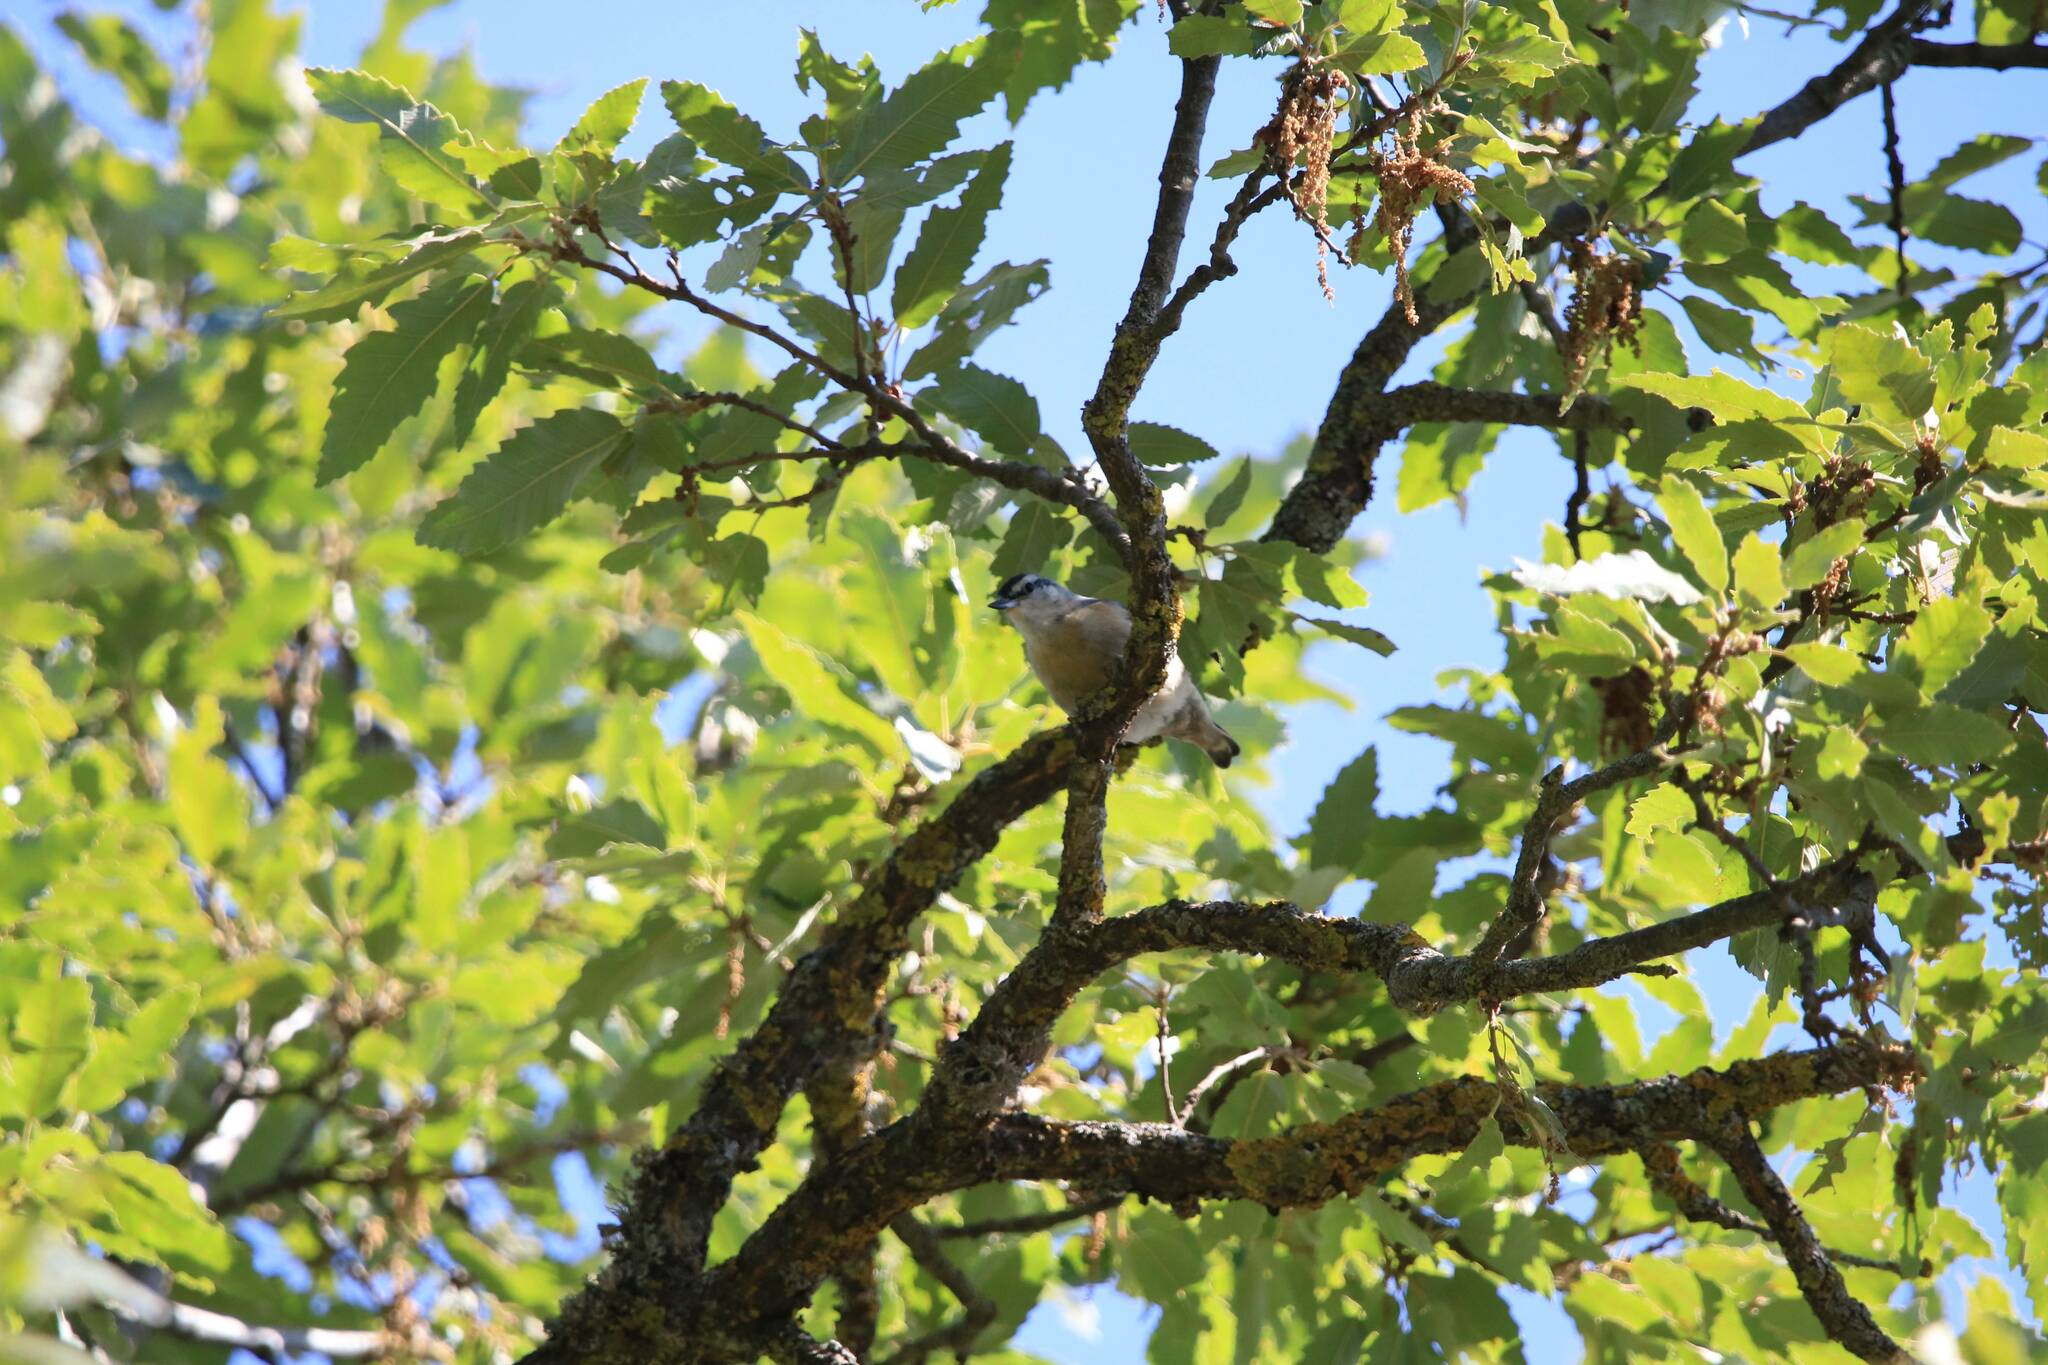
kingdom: Animalia
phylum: Chordata
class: Aves
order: Passeriformes
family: Sittidae
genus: Sitta
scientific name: Sitta ledanti
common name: Algerian nuthatch
